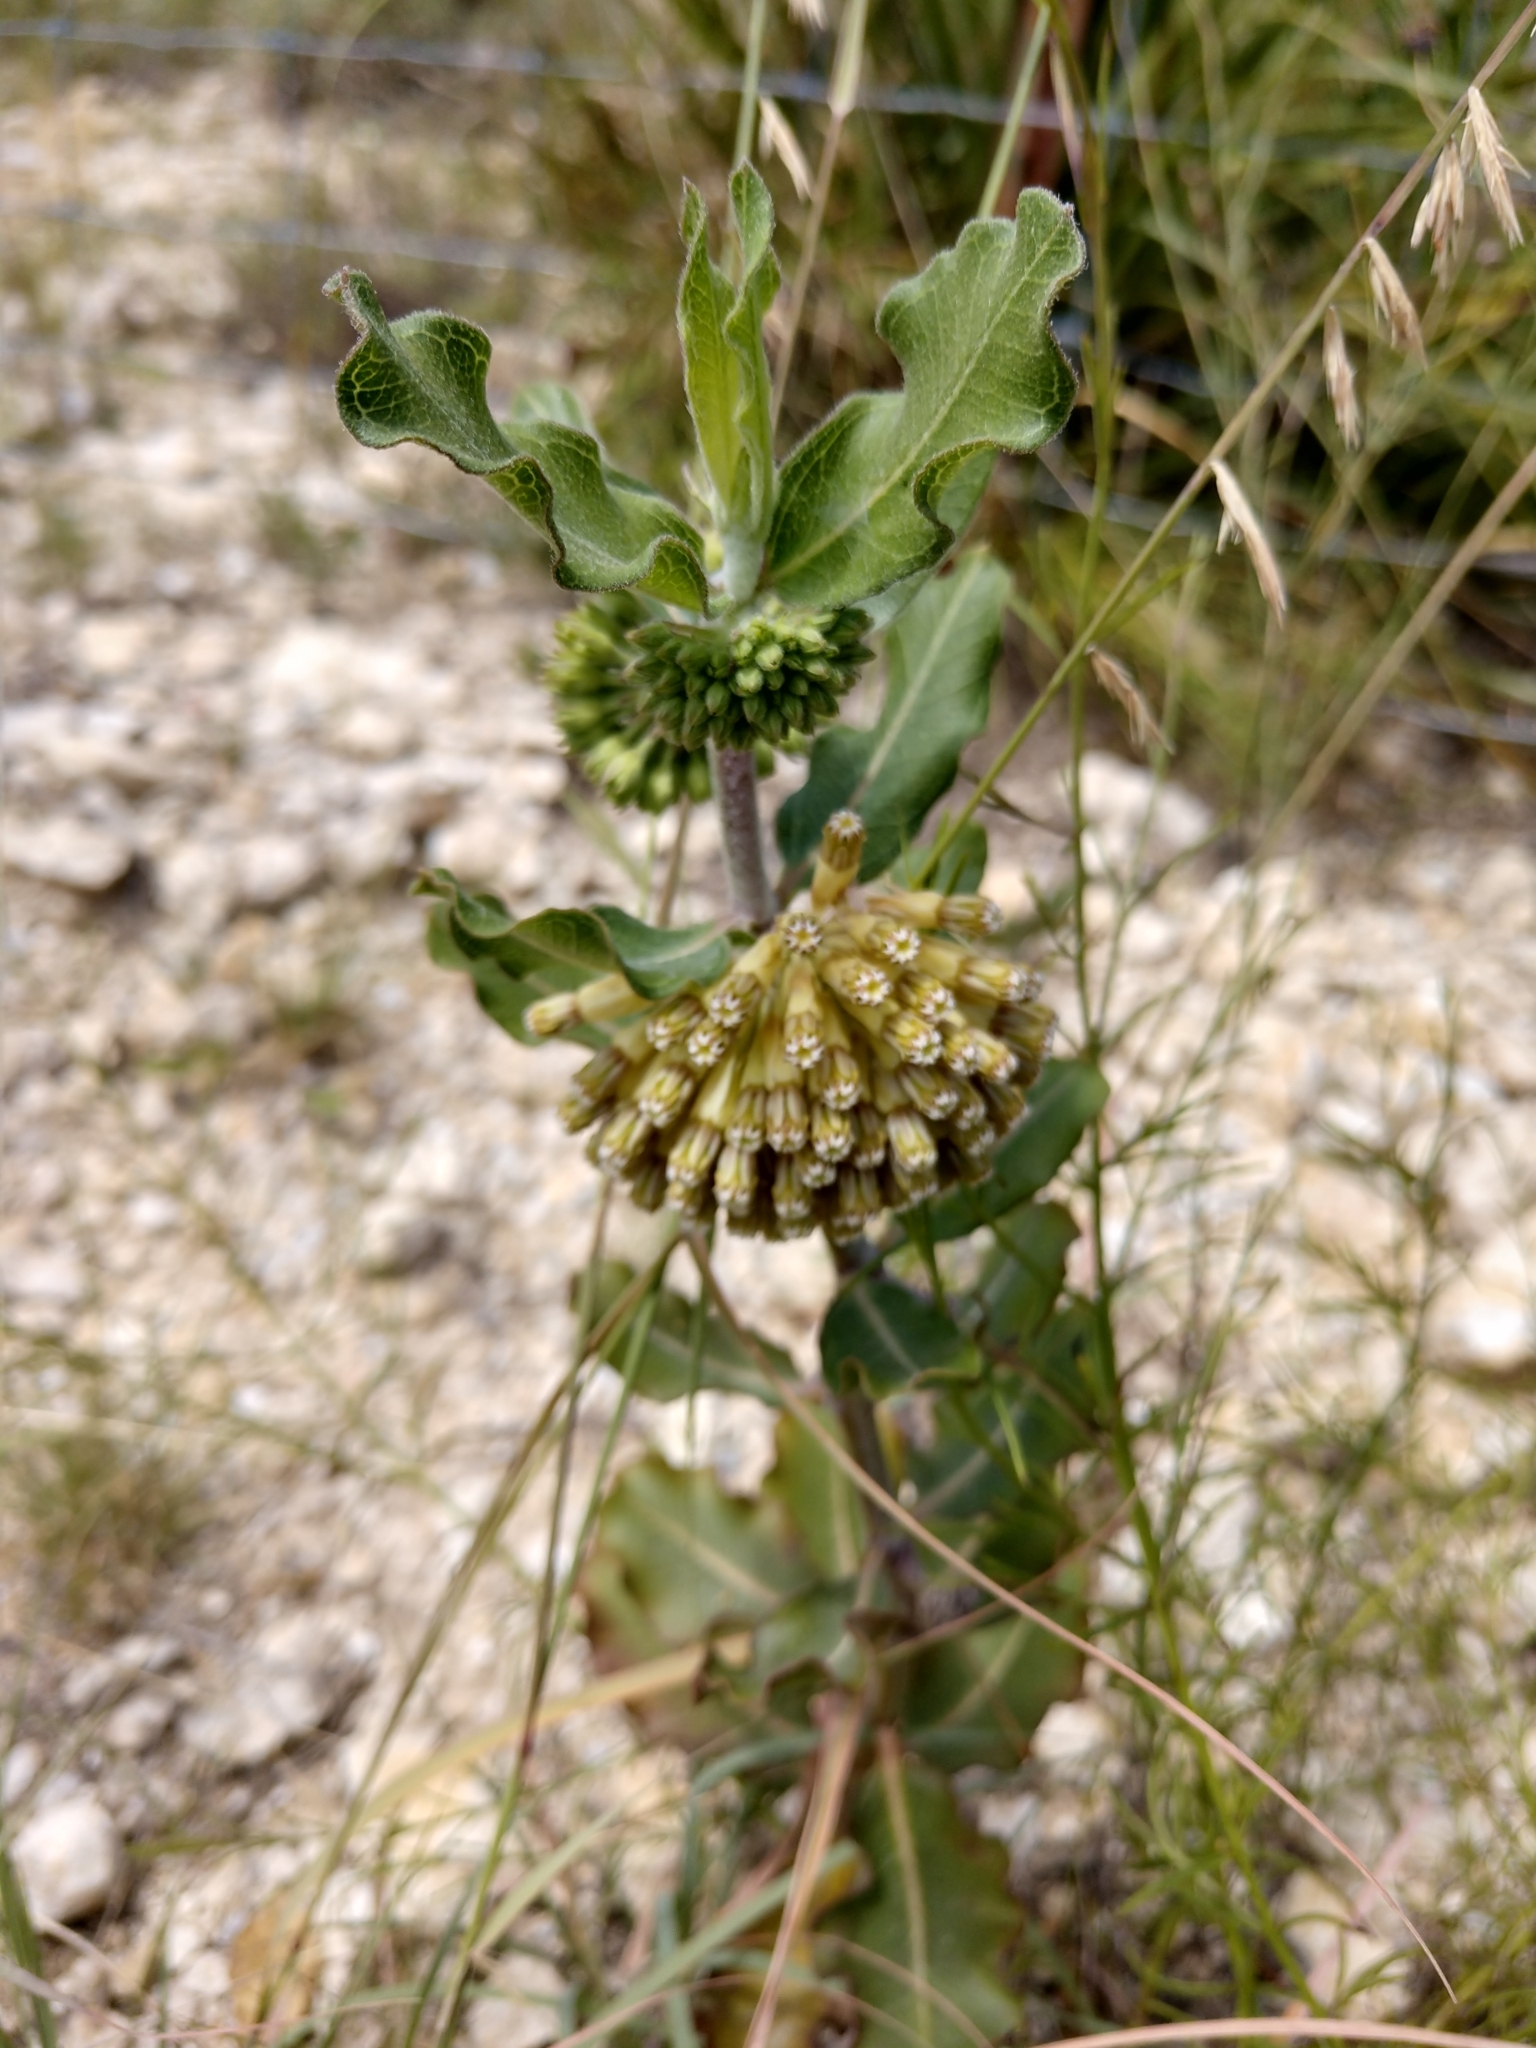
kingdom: Plantae
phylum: Tracheophyta
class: Magnoliopsida
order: Gentianales
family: Apocynaceae
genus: Asclepias
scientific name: Asclepias viridiflora
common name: Green comet milkweed
